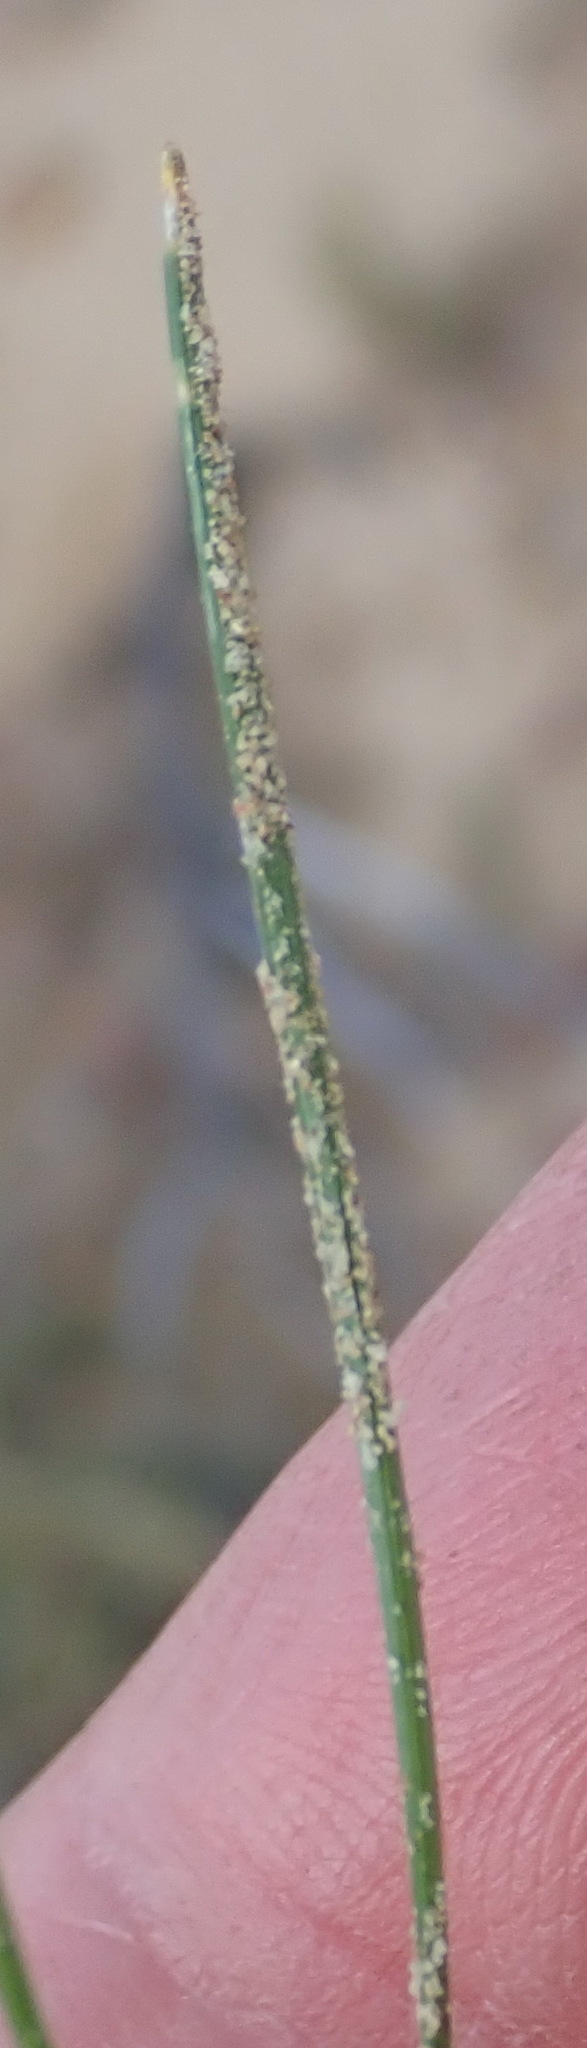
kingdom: Plantae
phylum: Tracheophyta
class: Liliopsida
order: Asparagales
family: Iridaceae
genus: Romulea
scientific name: Romulea austinii
